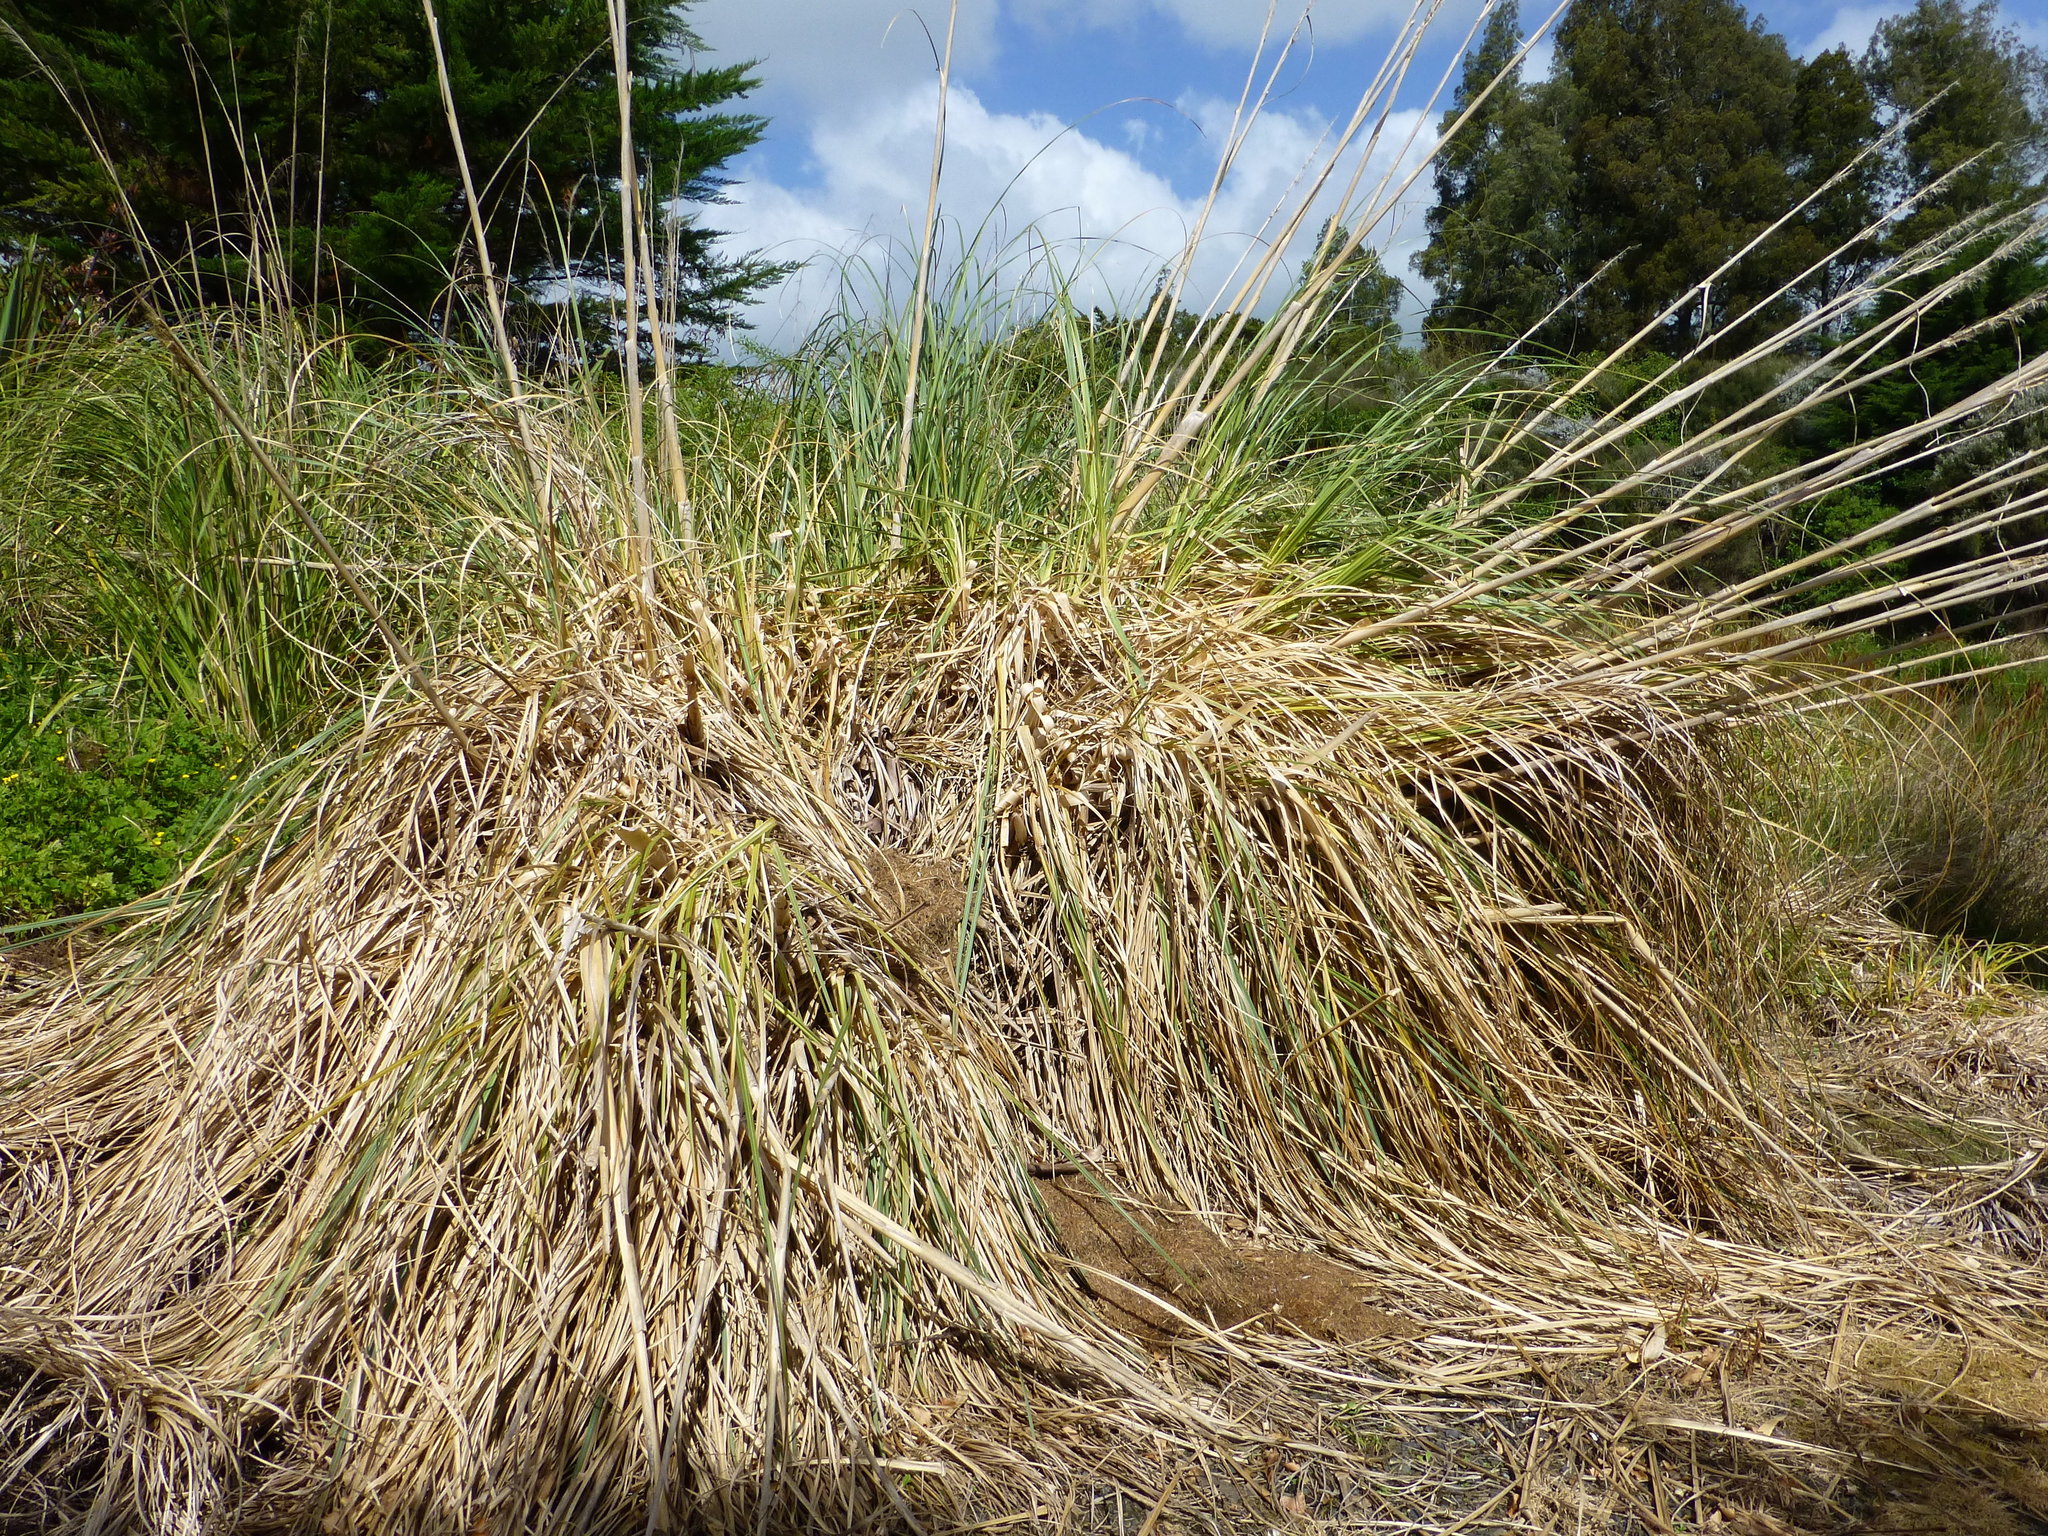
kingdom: Plantae
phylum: Tracheophyta
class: Liliopsida
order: Poales
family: Poaceae
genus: Cortaderia
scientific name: Cortaderia selloana
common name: Uruguayan pampas grass
